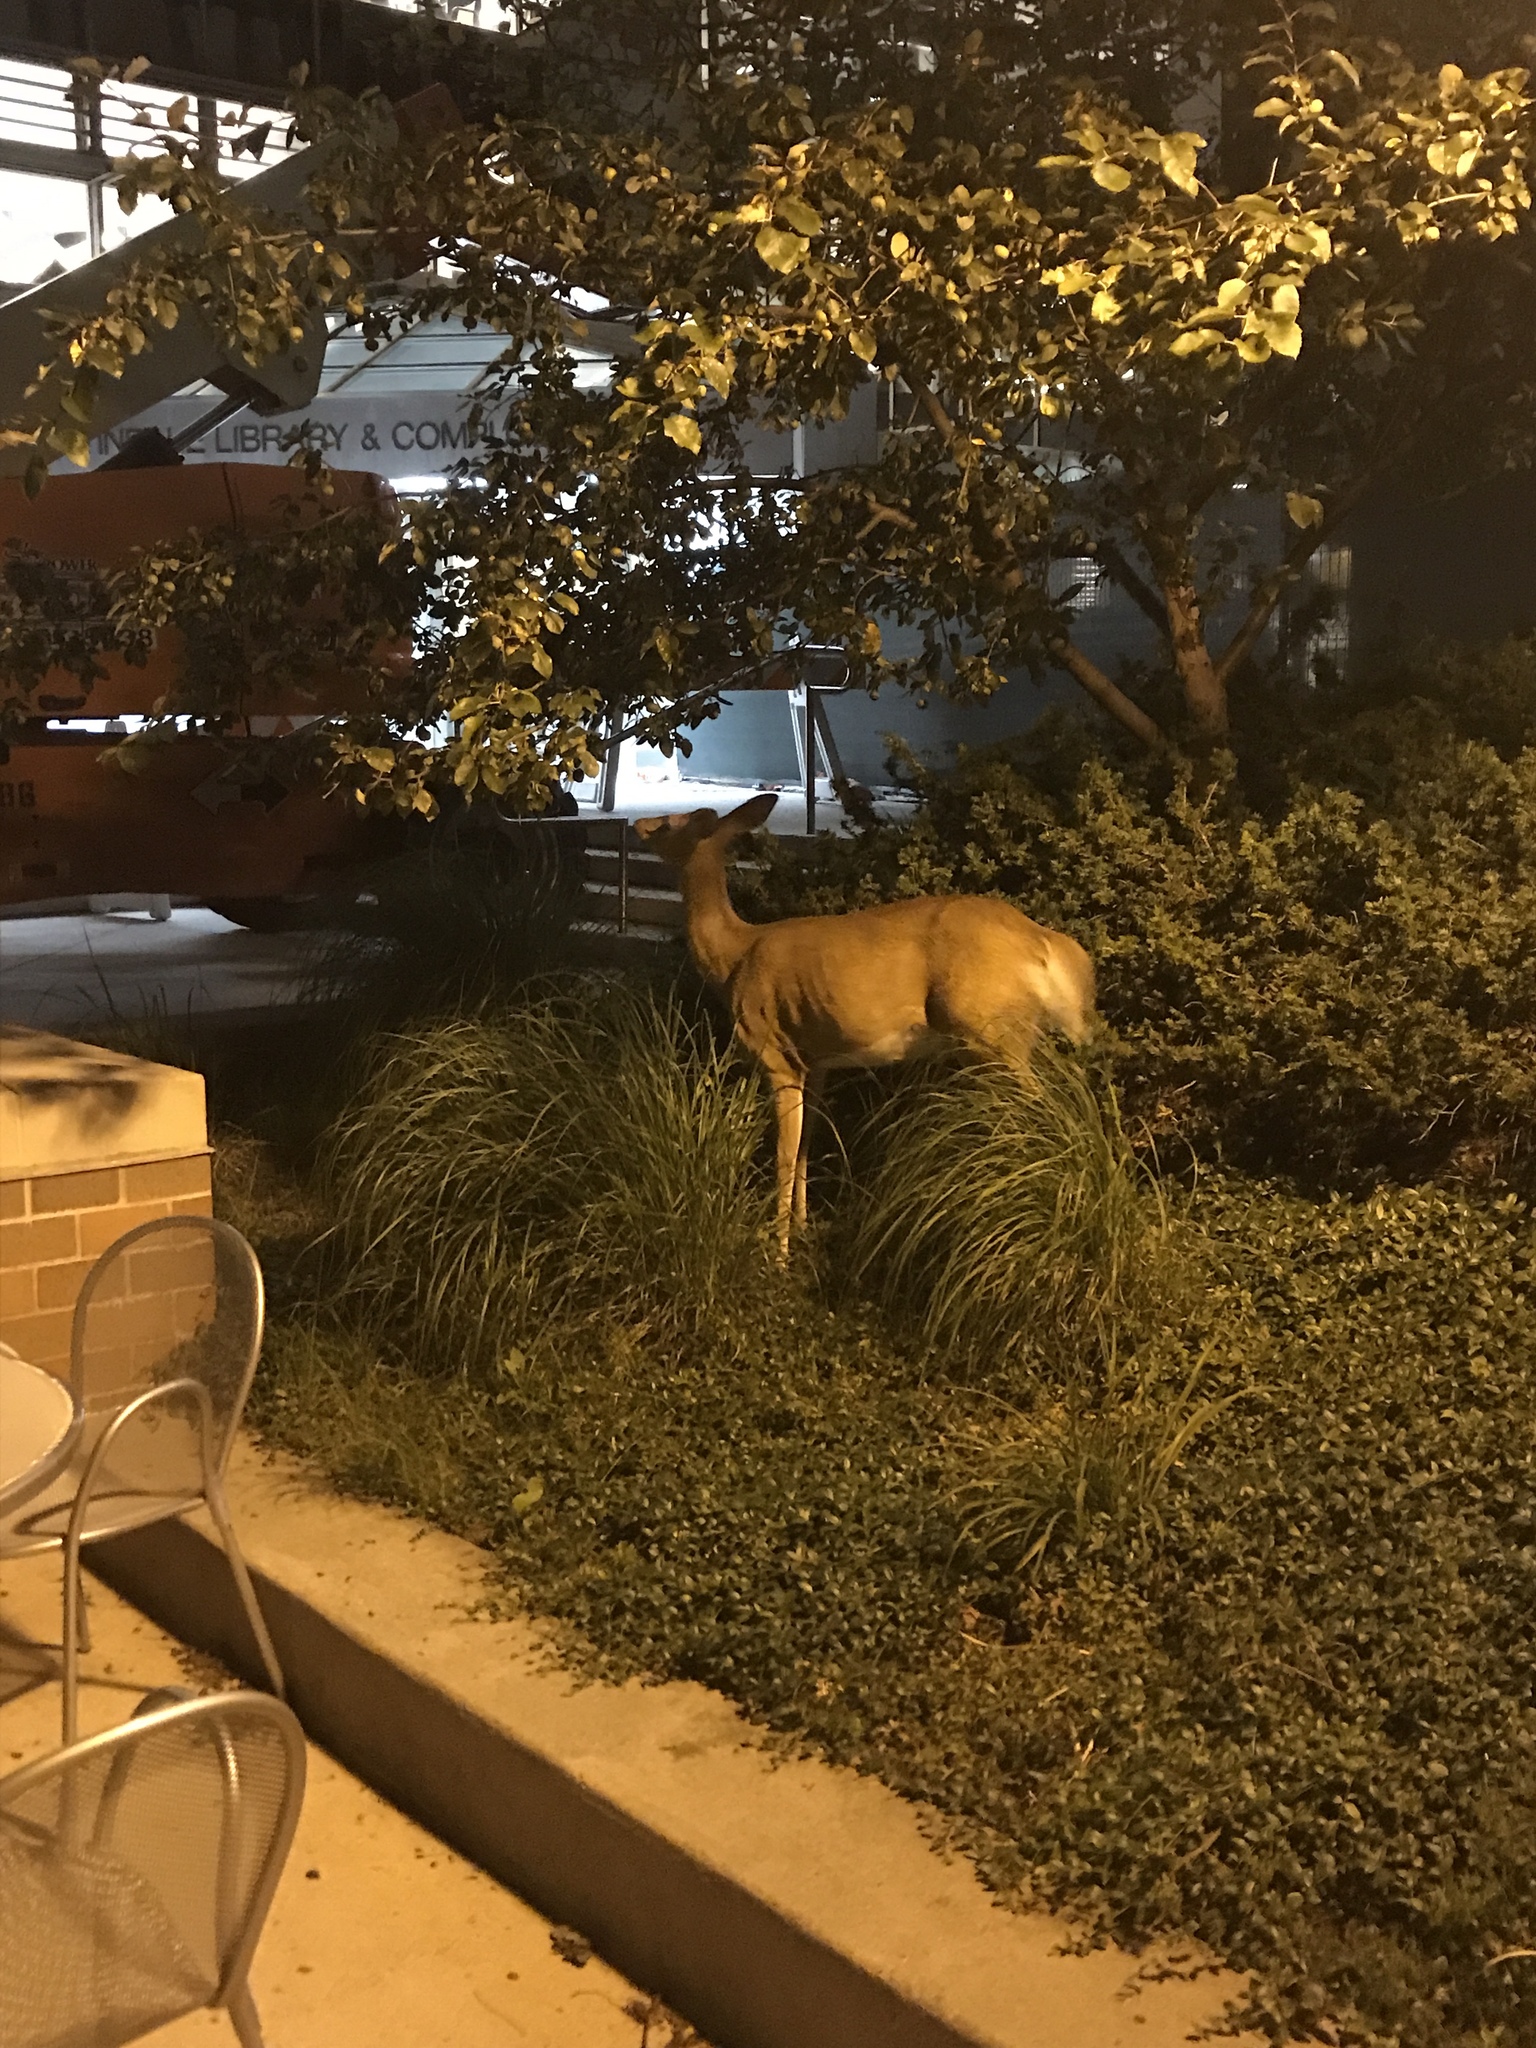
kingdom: Animalia
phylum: Chordata
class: Mammalia
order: Artiodactyla
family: Cervidae
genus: Odocoileus
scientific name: Odocoileus virginianus
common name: White-tailed deer
